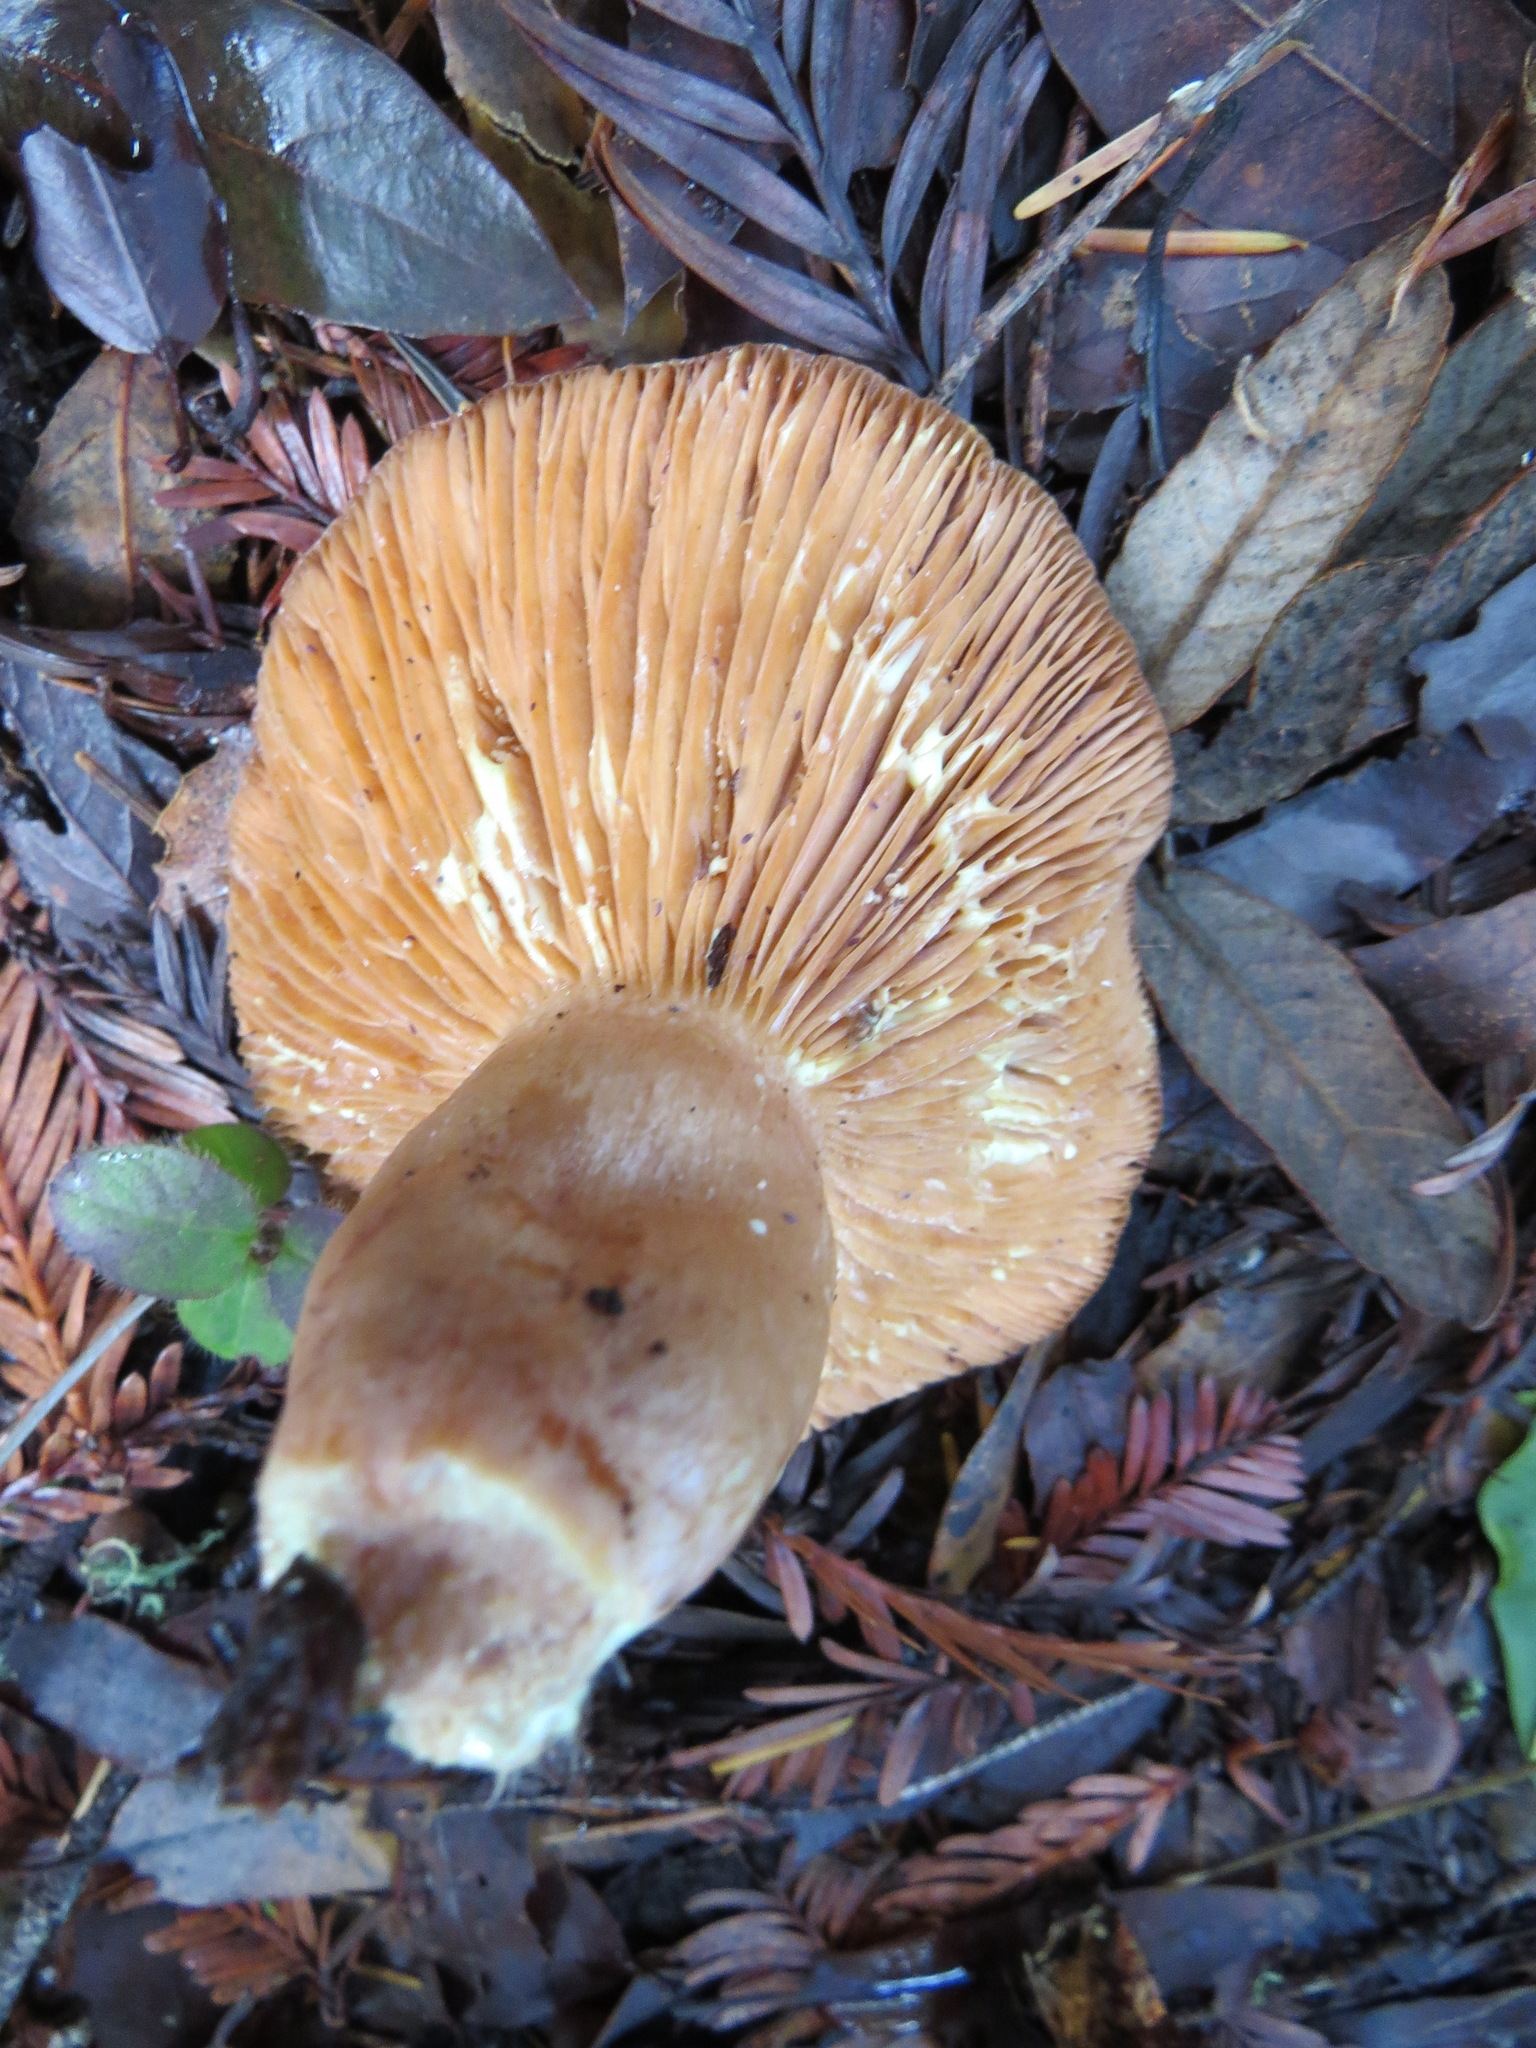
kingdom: Fungi
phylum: Basidiomycota
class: Agaricomycetes
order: Russulales
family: Russulaceae
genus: Lactarius
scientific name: Lactarius xanthogalactus
